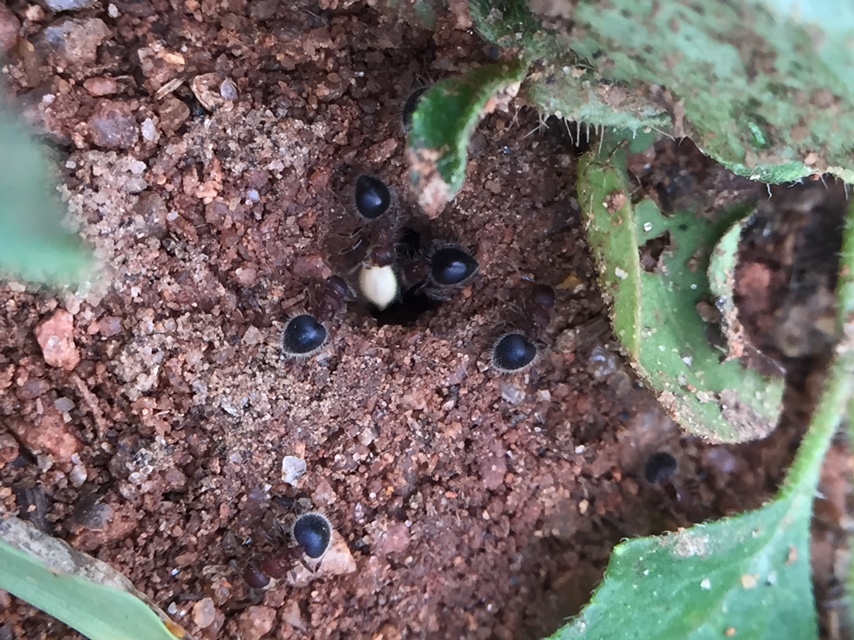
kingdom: Animalia
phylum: Arthropoda
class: Insecta
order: Hymenoptera
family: Formicidae
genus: Meranoplus
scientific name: Meranoplus bicolor
